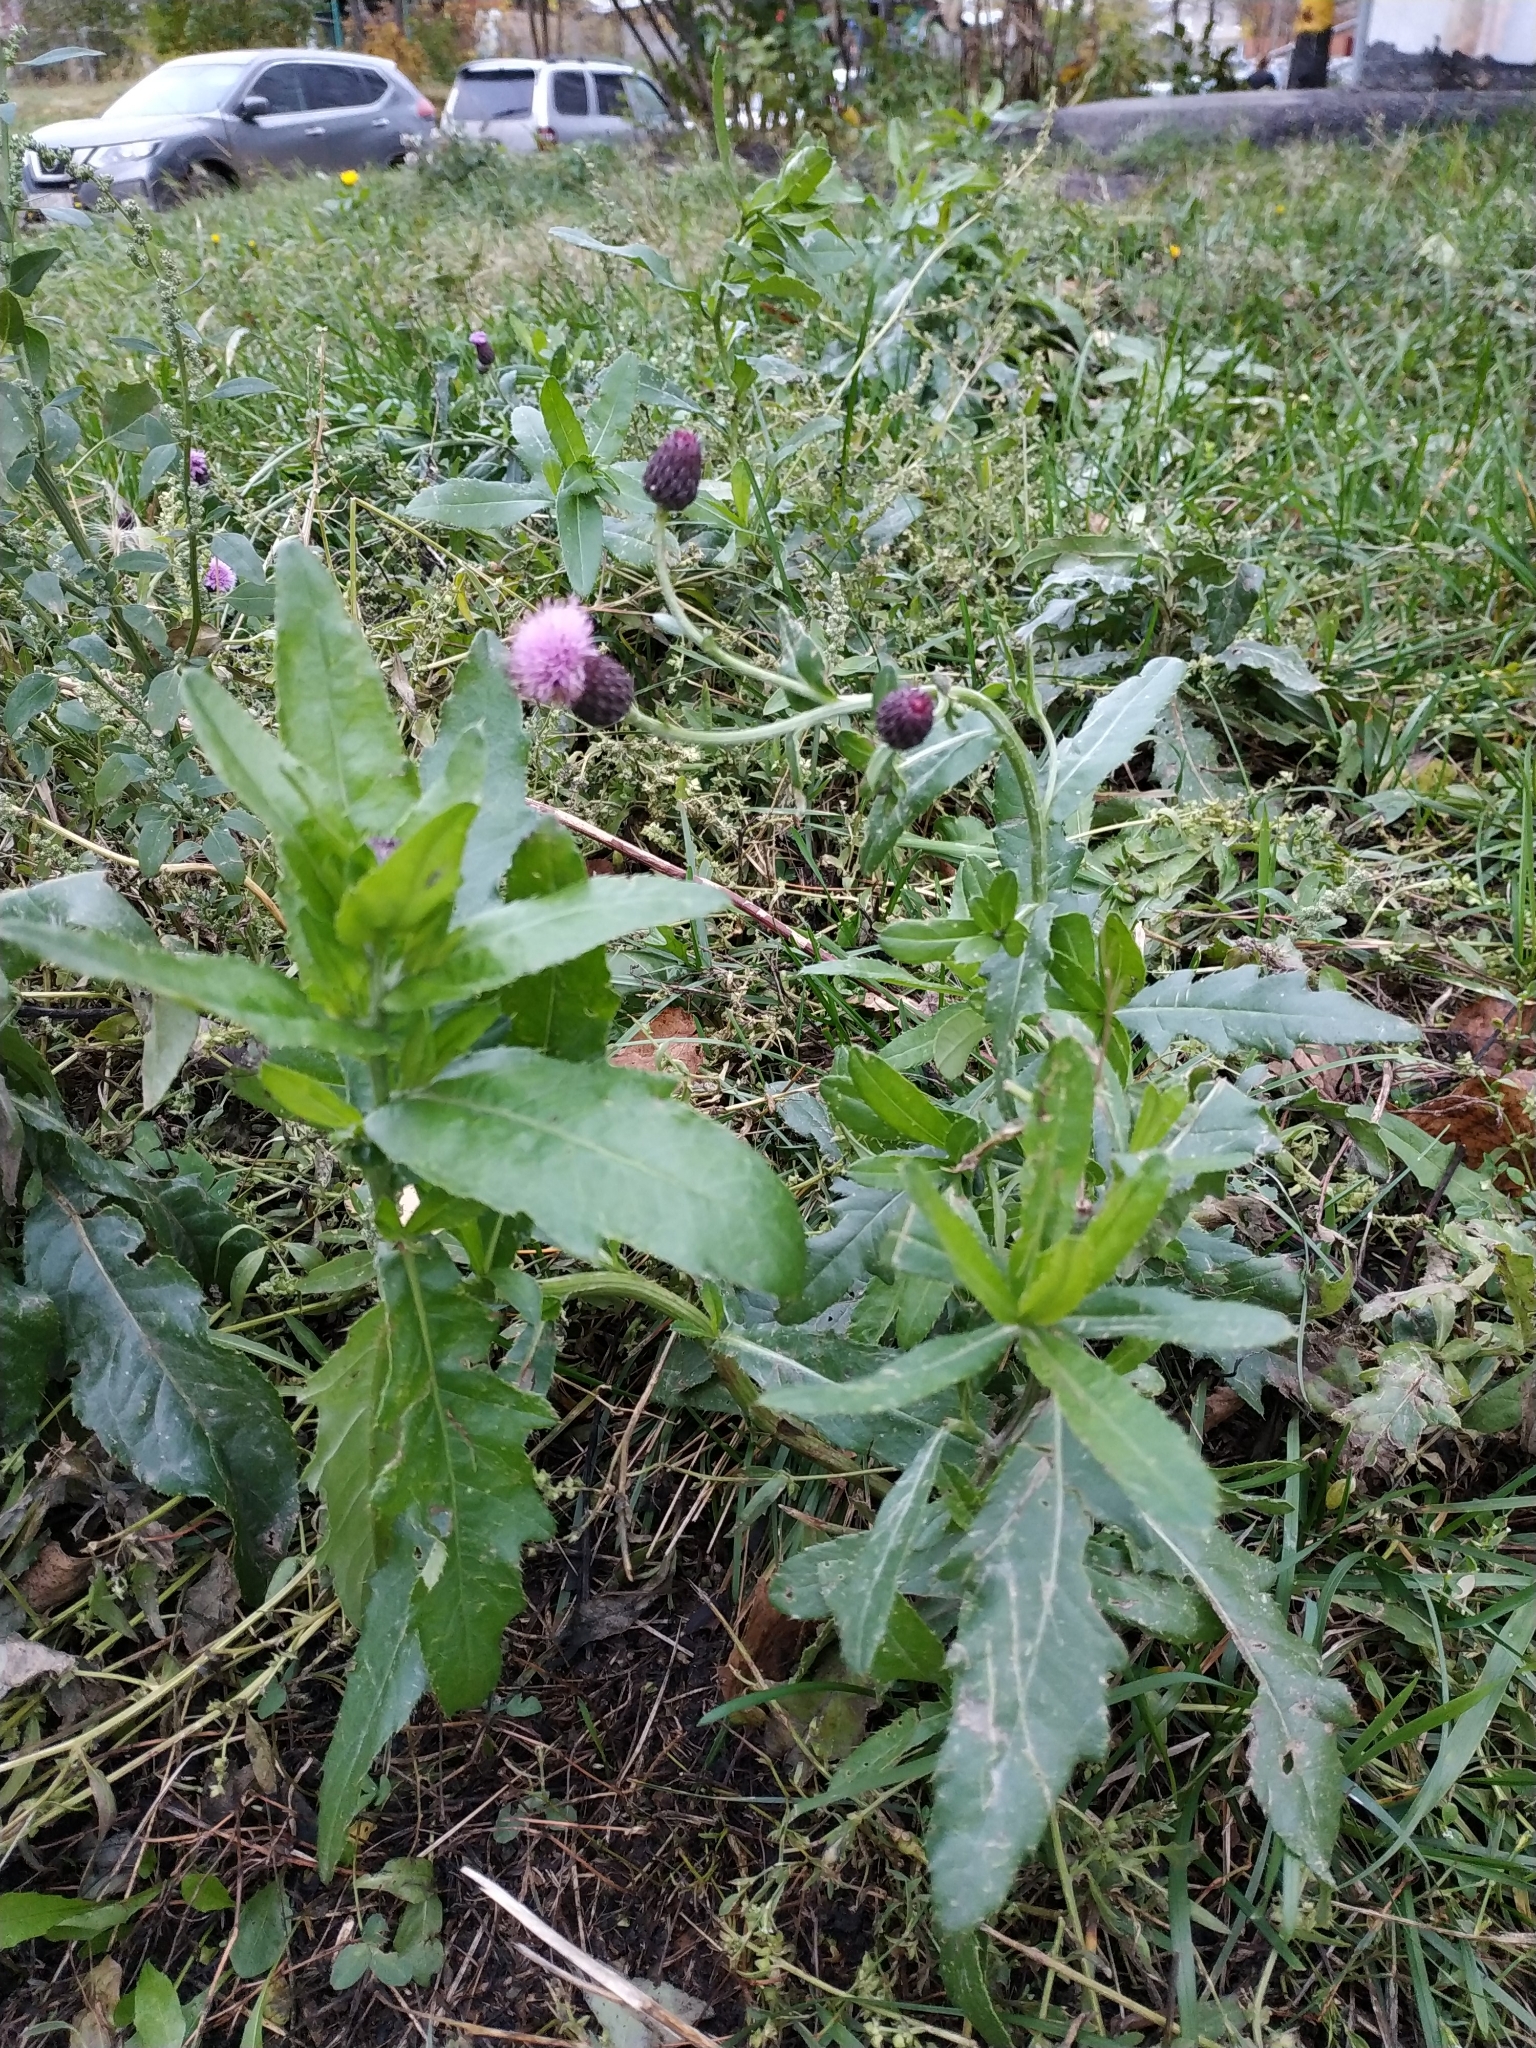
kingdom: Plantae
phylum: Tracheophyta
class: Magnoliopsida
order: Asterales
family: Asteraceae
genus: Cirsium
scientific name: Cirsium arvense
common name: Creeping thistle
